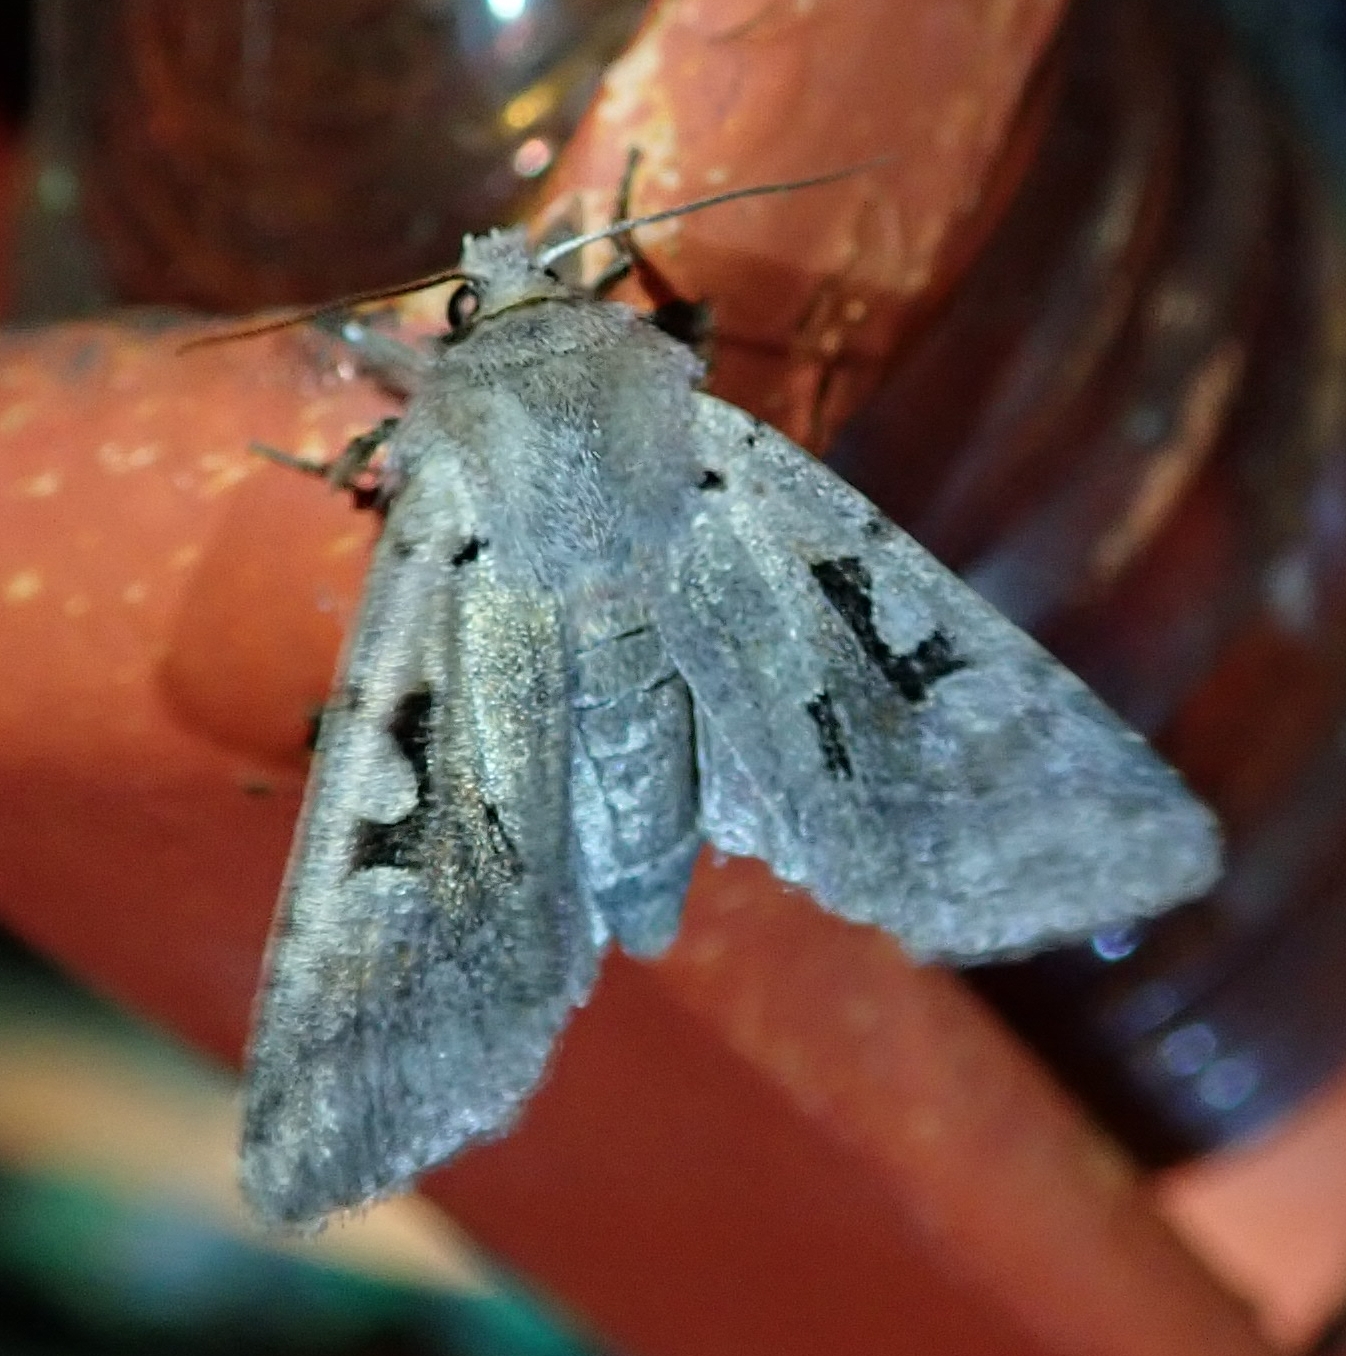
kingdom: Animalia
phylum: Arthropoda
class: Insecta
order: Lepidoptera
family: Noctuidae
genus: Orthosia
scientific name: Orthosia gothica
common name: Hebrew character
